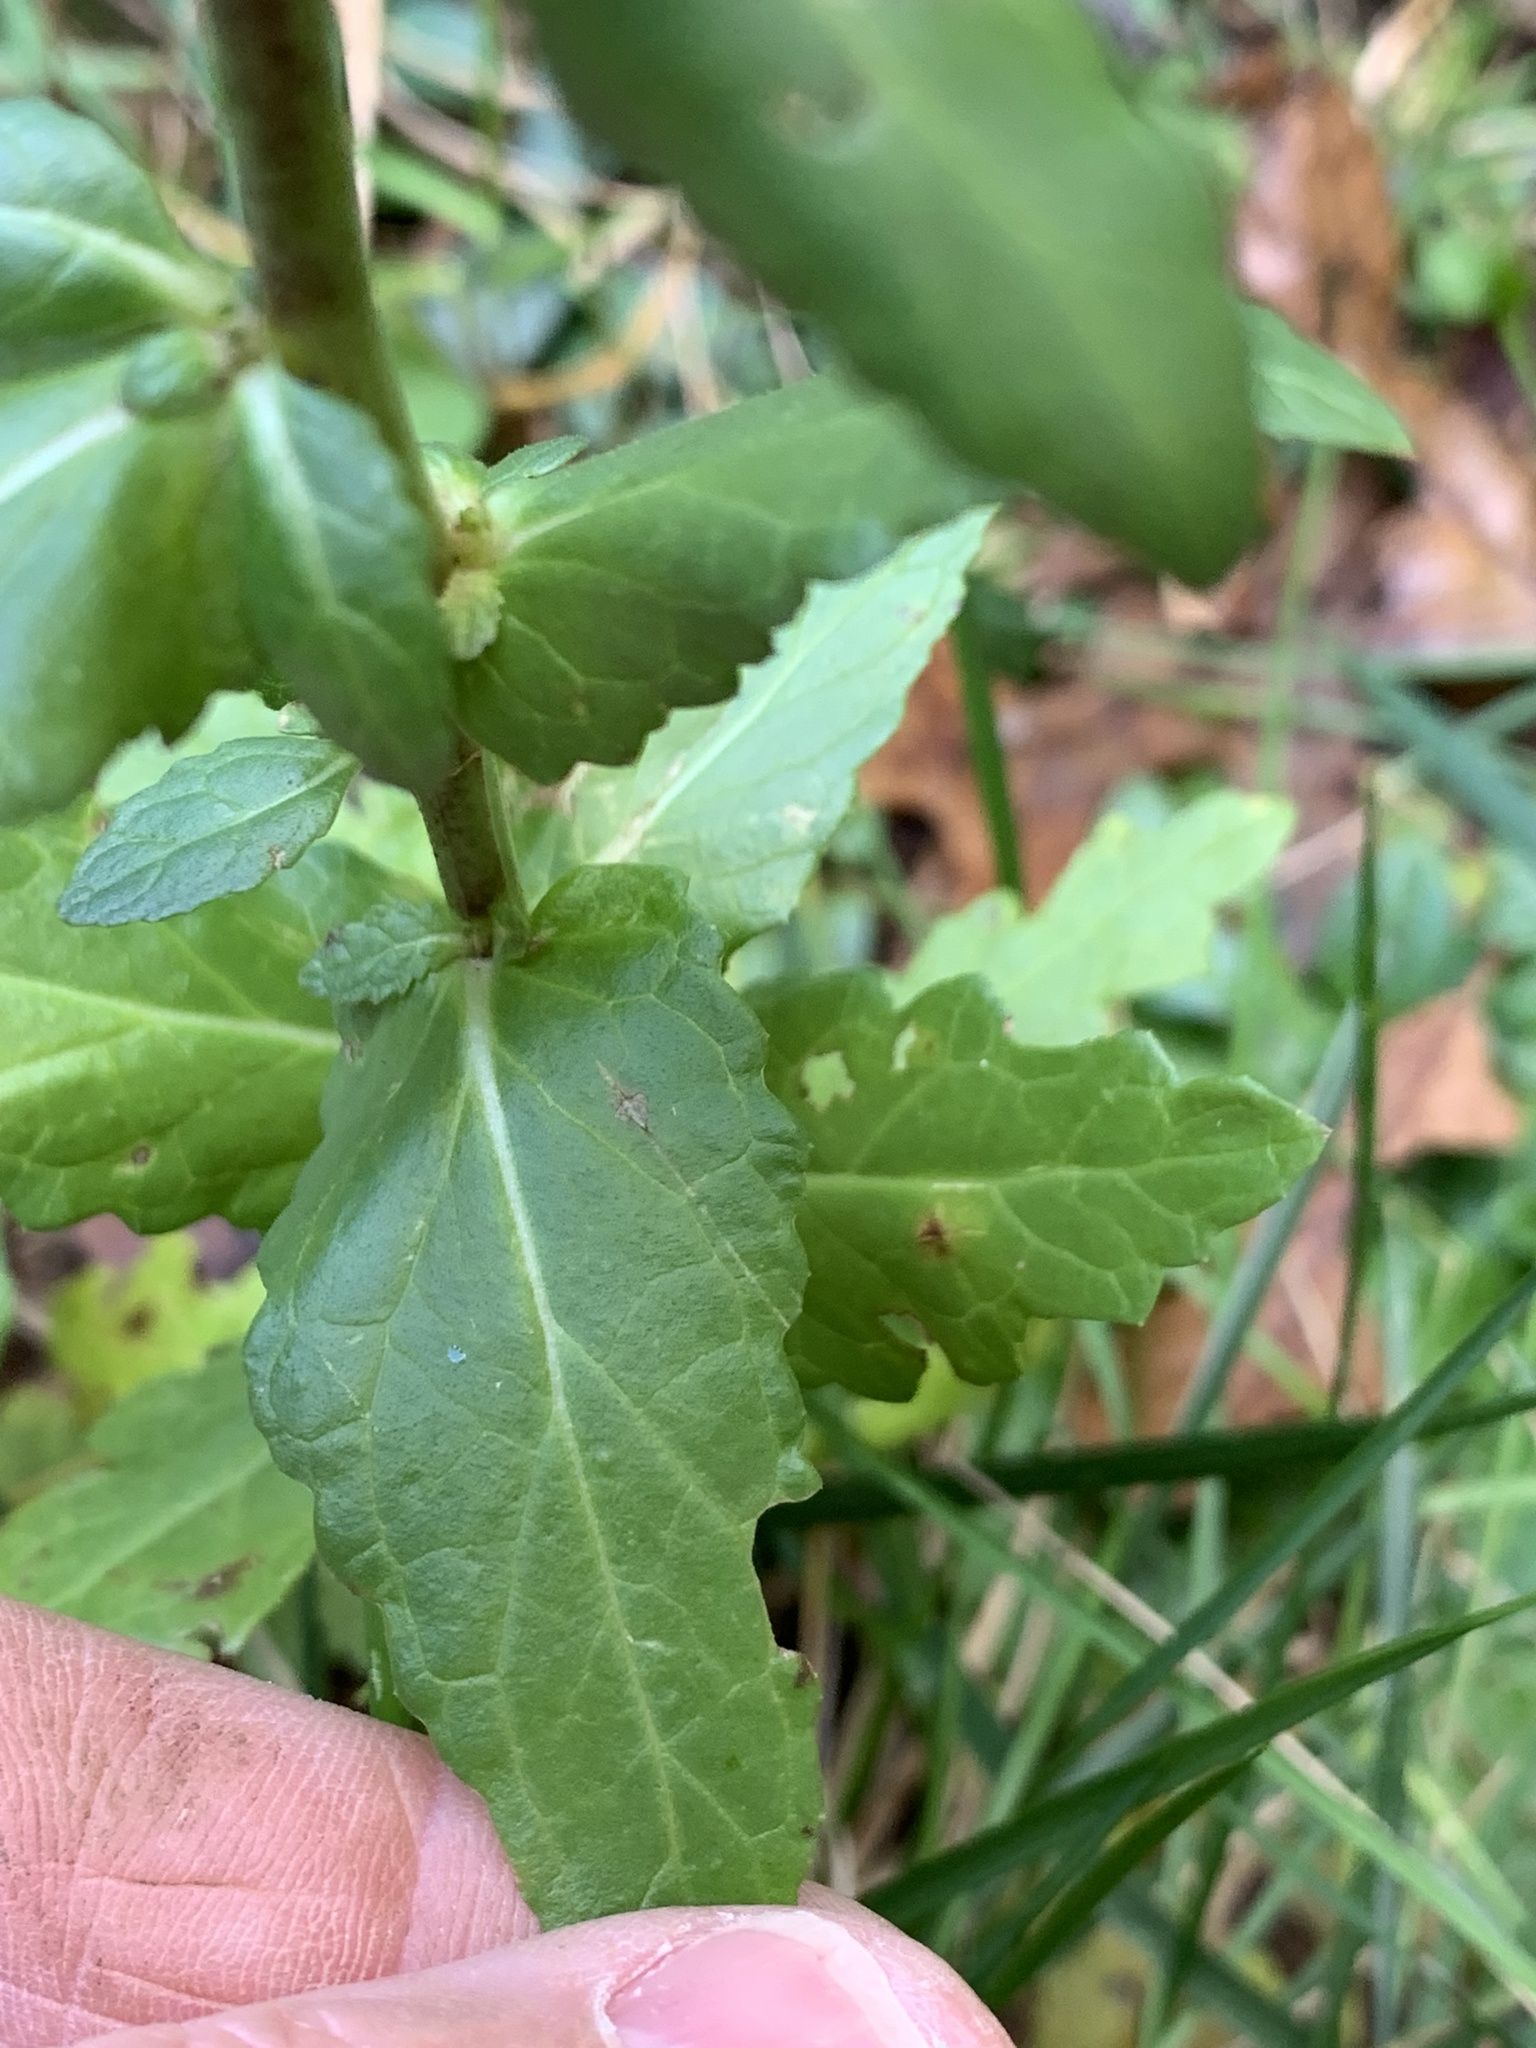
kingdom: Plantae
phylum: Tracheophyta
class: Magnoliopsida
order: Lamiales
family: Scrophulariaceae
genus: Verbascum
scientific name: Verbascum blattaria
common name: Moth mullein
